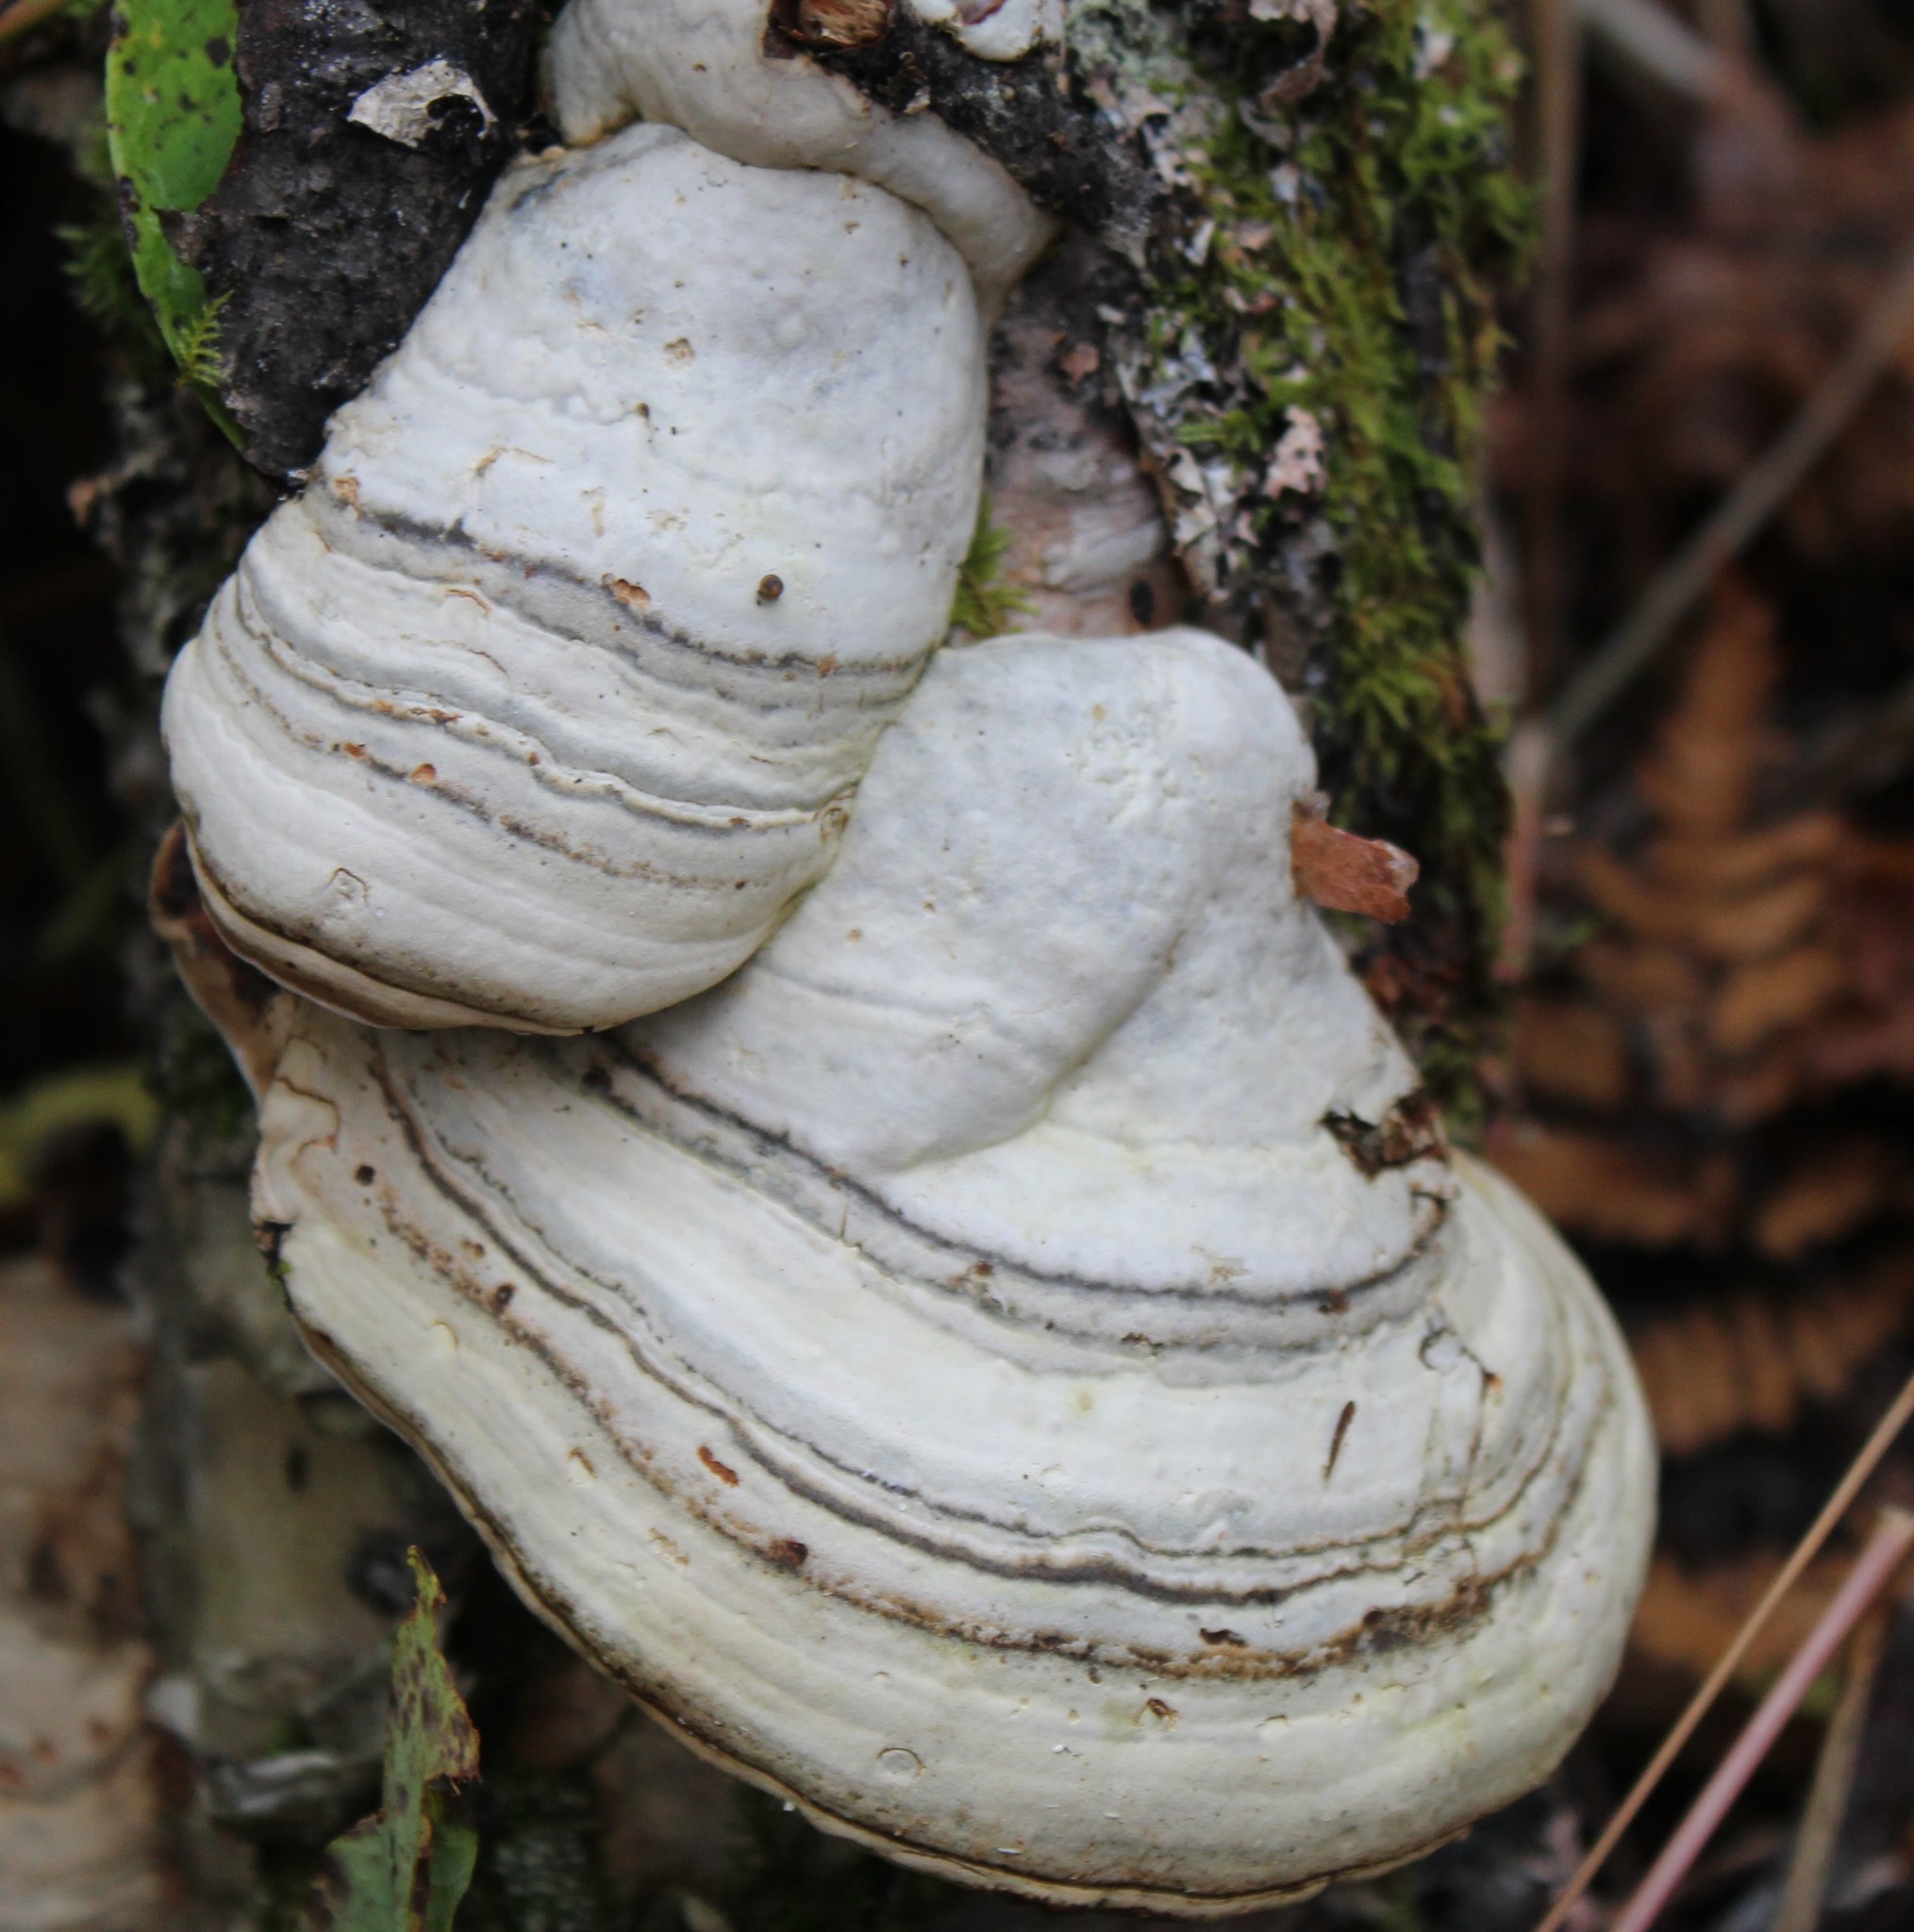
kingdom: Fungi
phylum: Basidiomycota
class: Agaricomycetes
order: Polyporales
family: Polyporaceae
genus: Fomes
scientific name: Fomes fomentarius
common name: Hoof fungus
